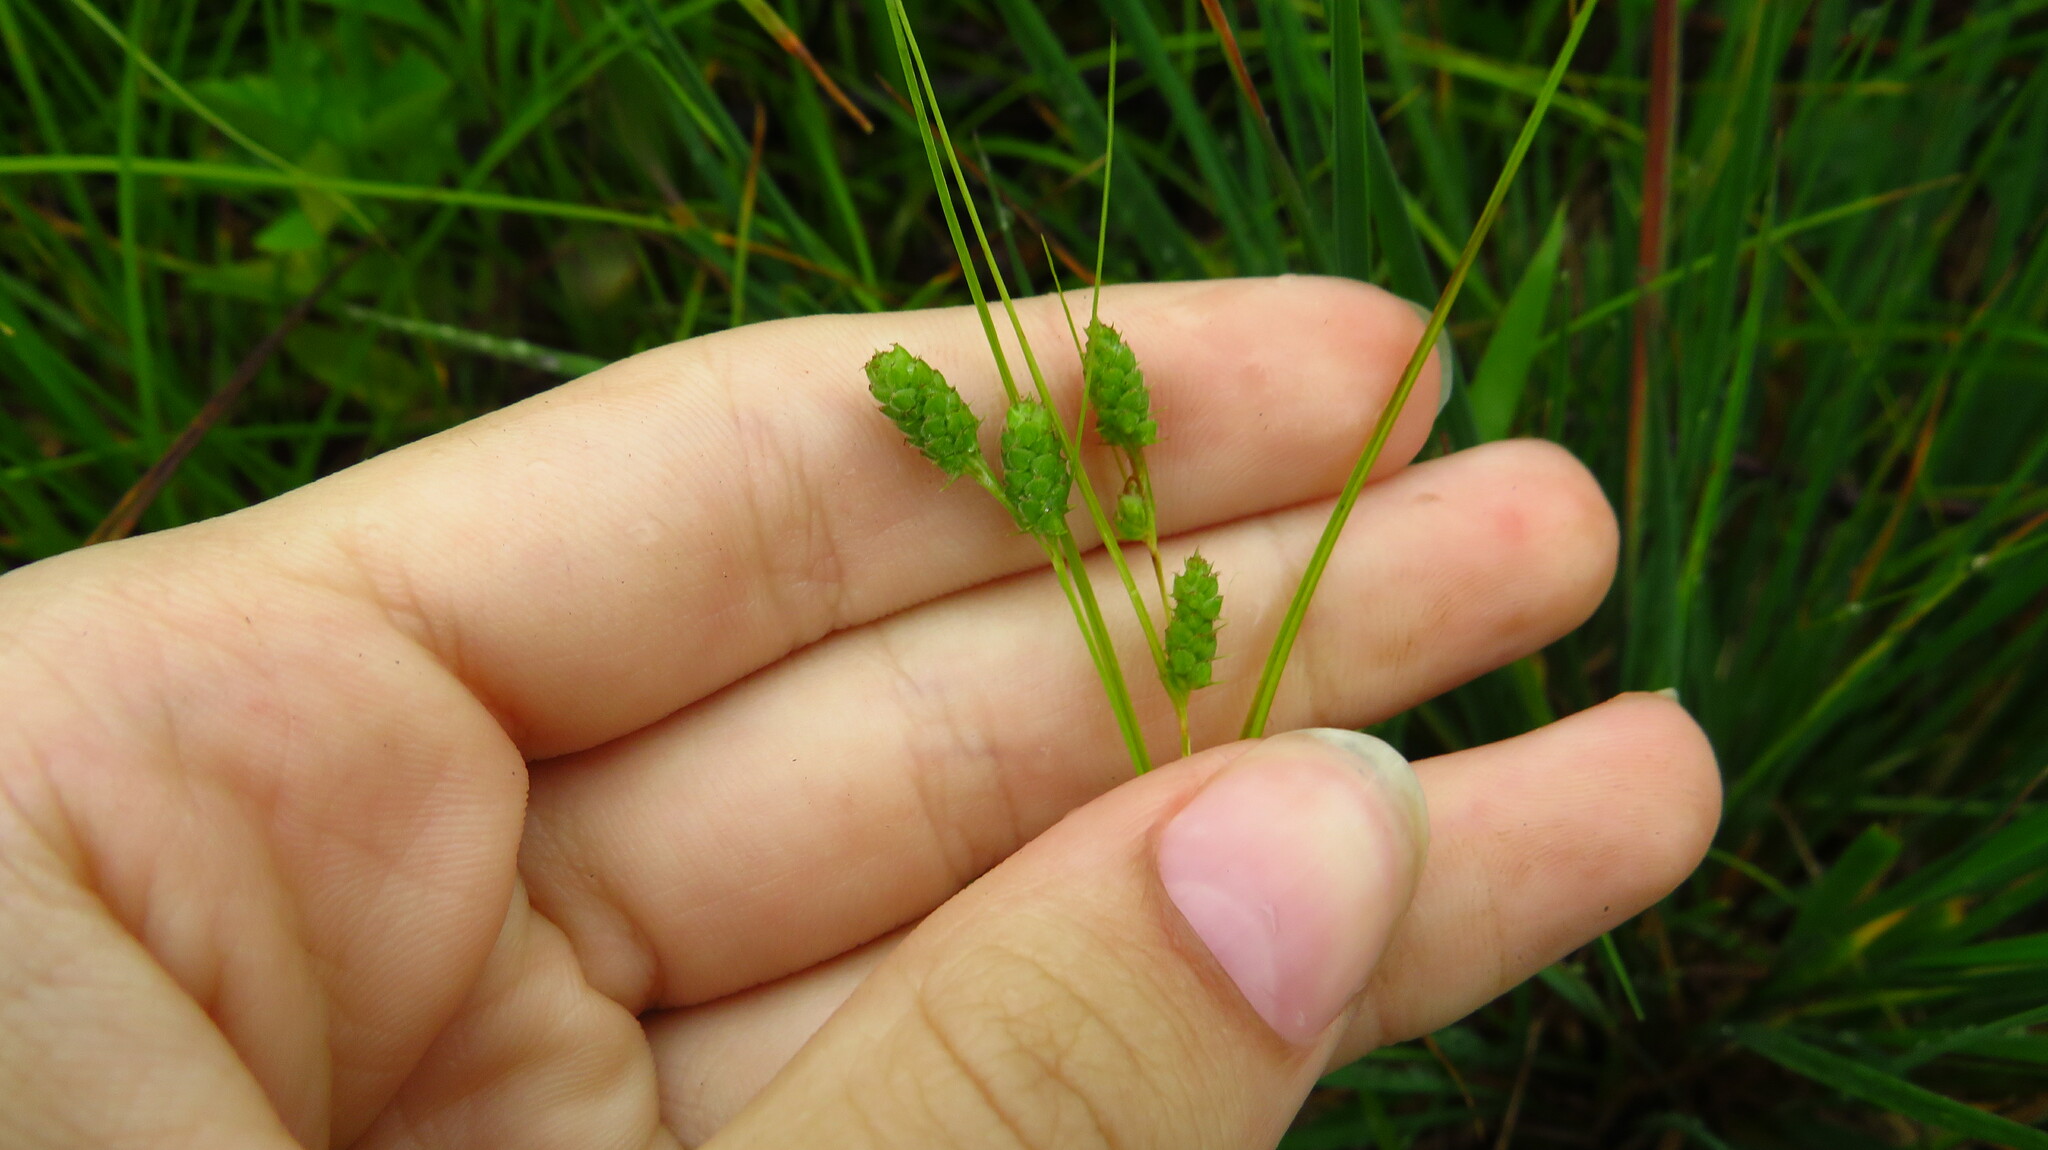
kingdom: Plantae
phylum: Tracheophyta
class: Liliopsida
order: Poales
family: Cyperaceae
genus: Carex
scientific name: Carex swanii
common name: Downy green sedge
